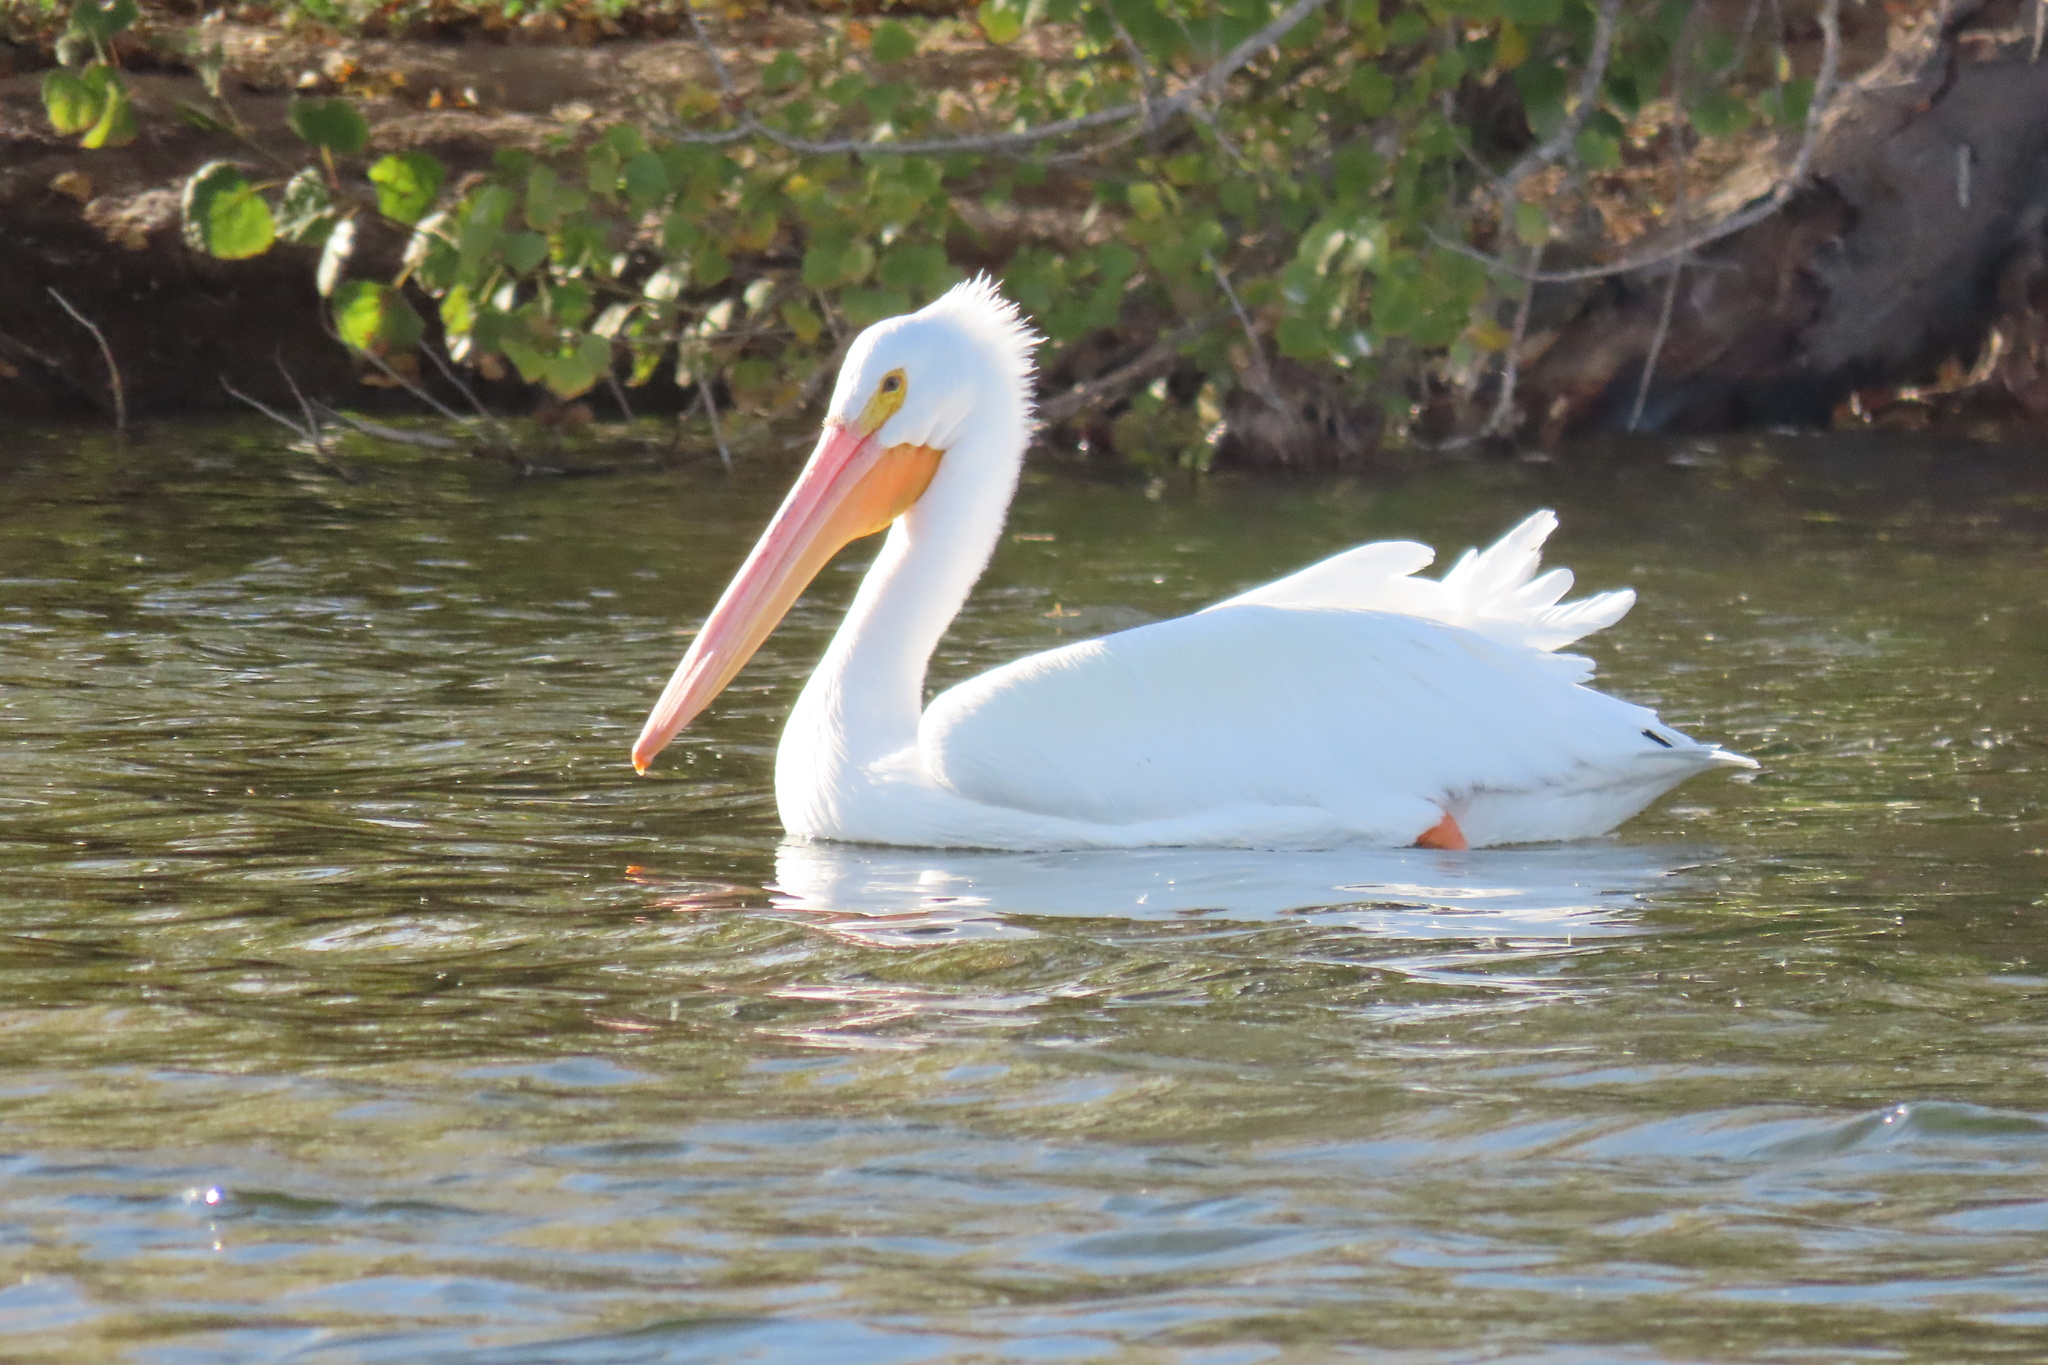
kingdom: Animalia
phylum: Chordata
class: Aves
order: Pelecaniformes
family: Pelecanidae
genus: Pelecanus
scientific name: Pelecanus erythrorhynchos
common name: American white pelican
